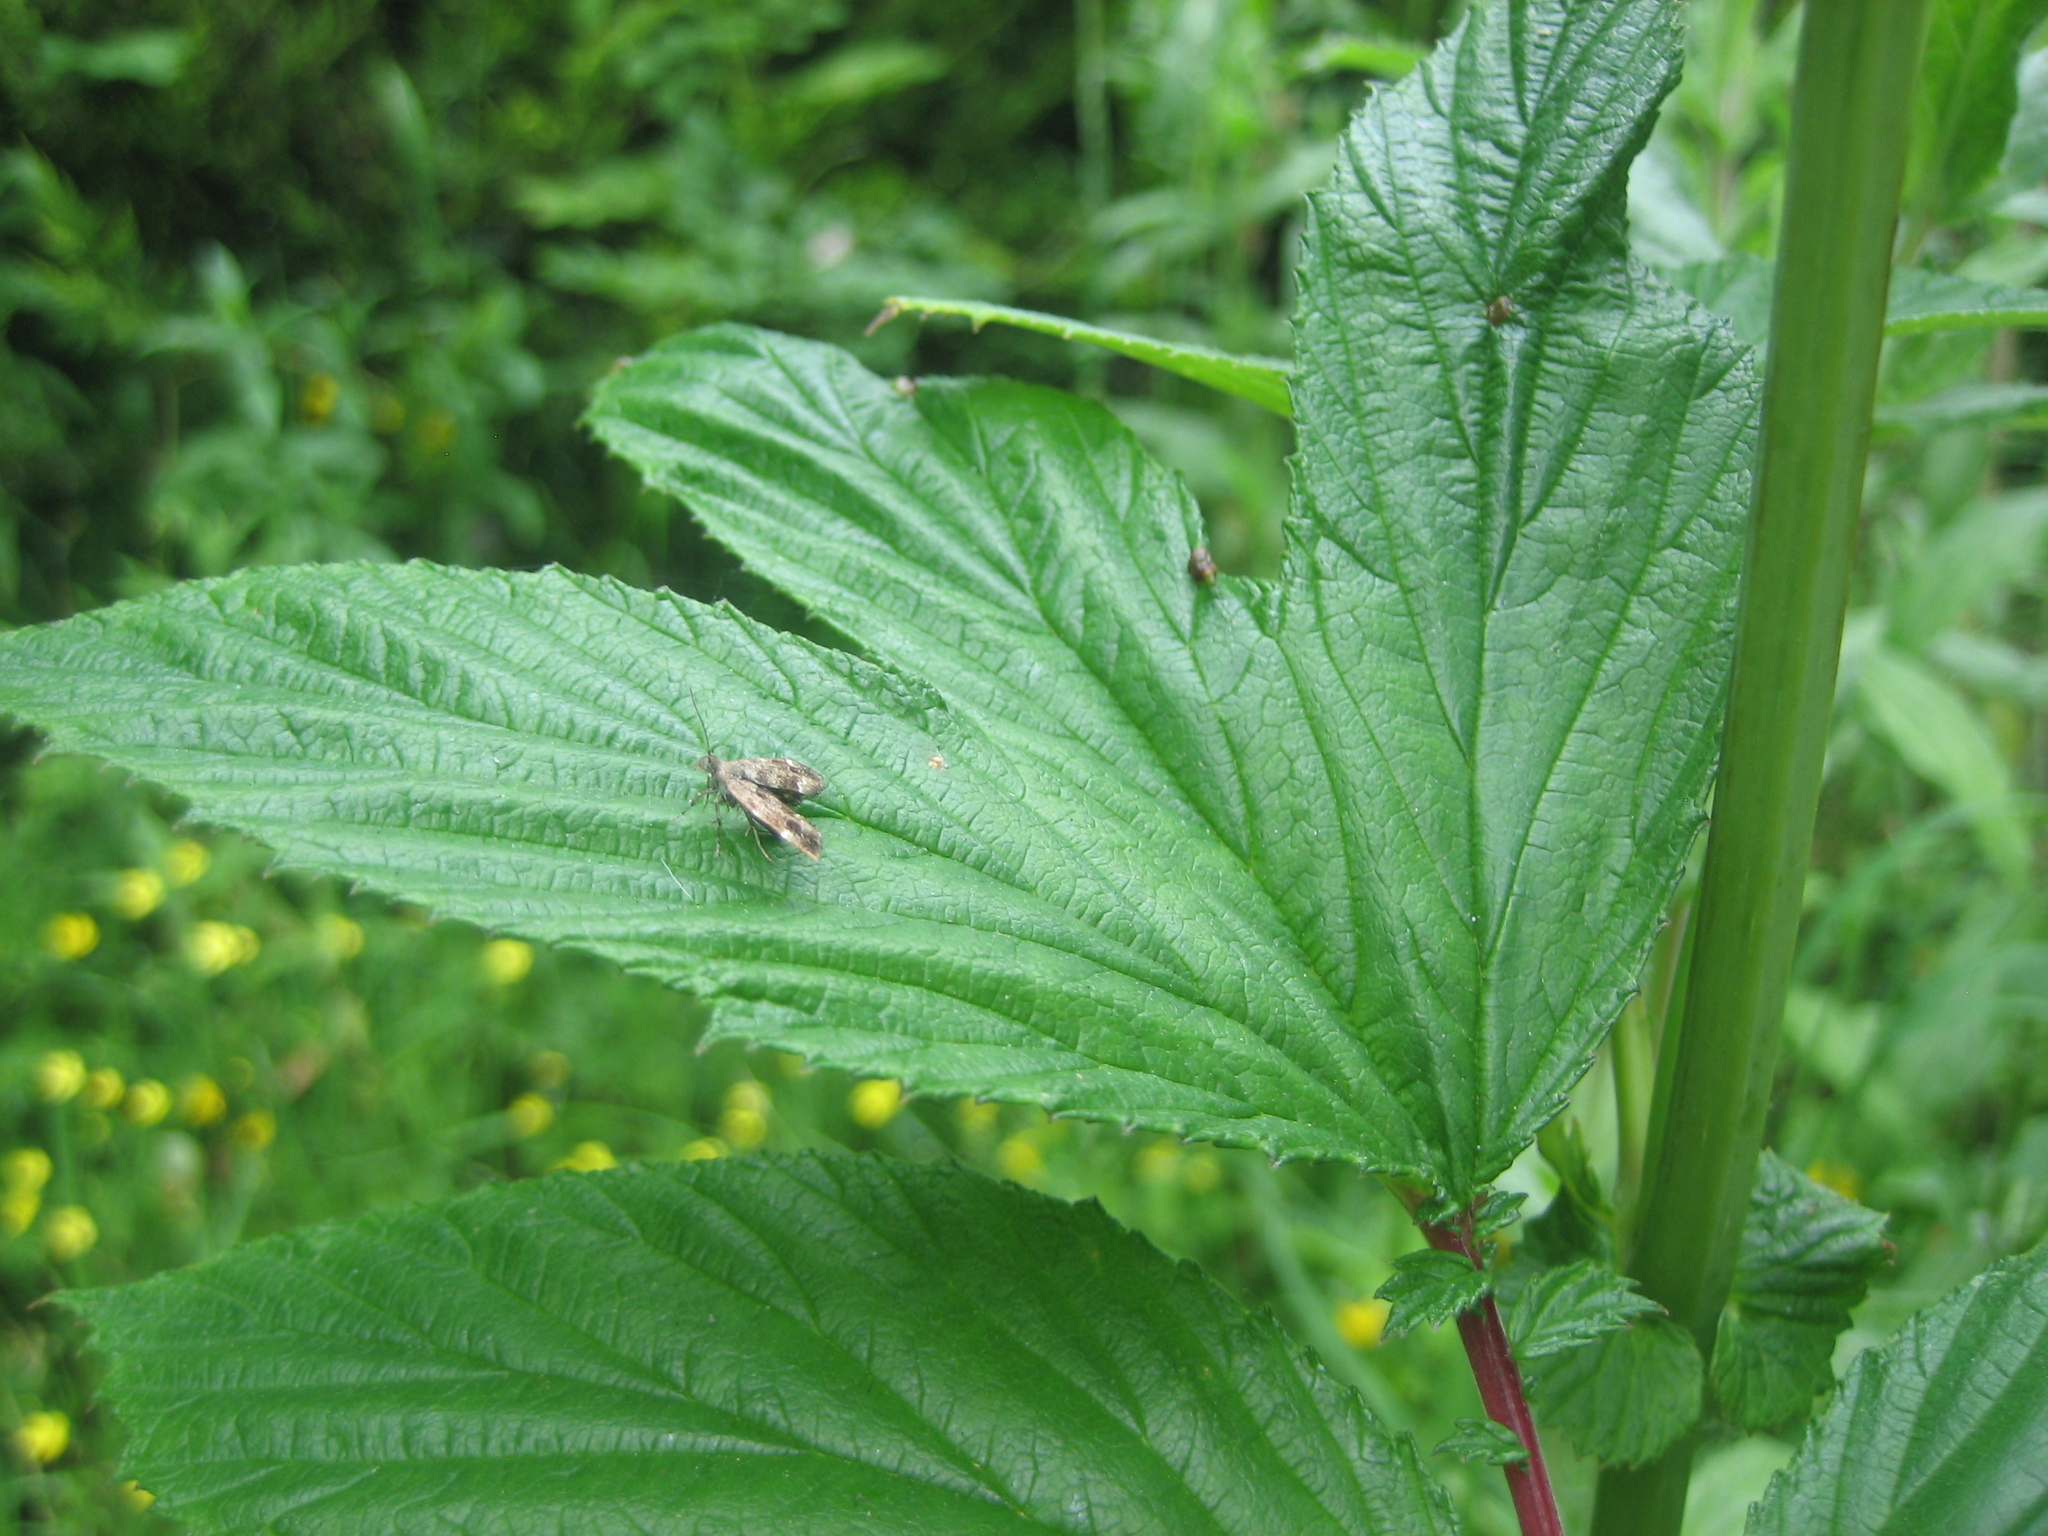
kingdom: Animalia
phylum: Arthropoda
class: Insecta
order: Lepidoptera
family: Choreutidae
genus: Anthophila
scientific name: Anthophila fabriciana
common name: Nettle-tap
